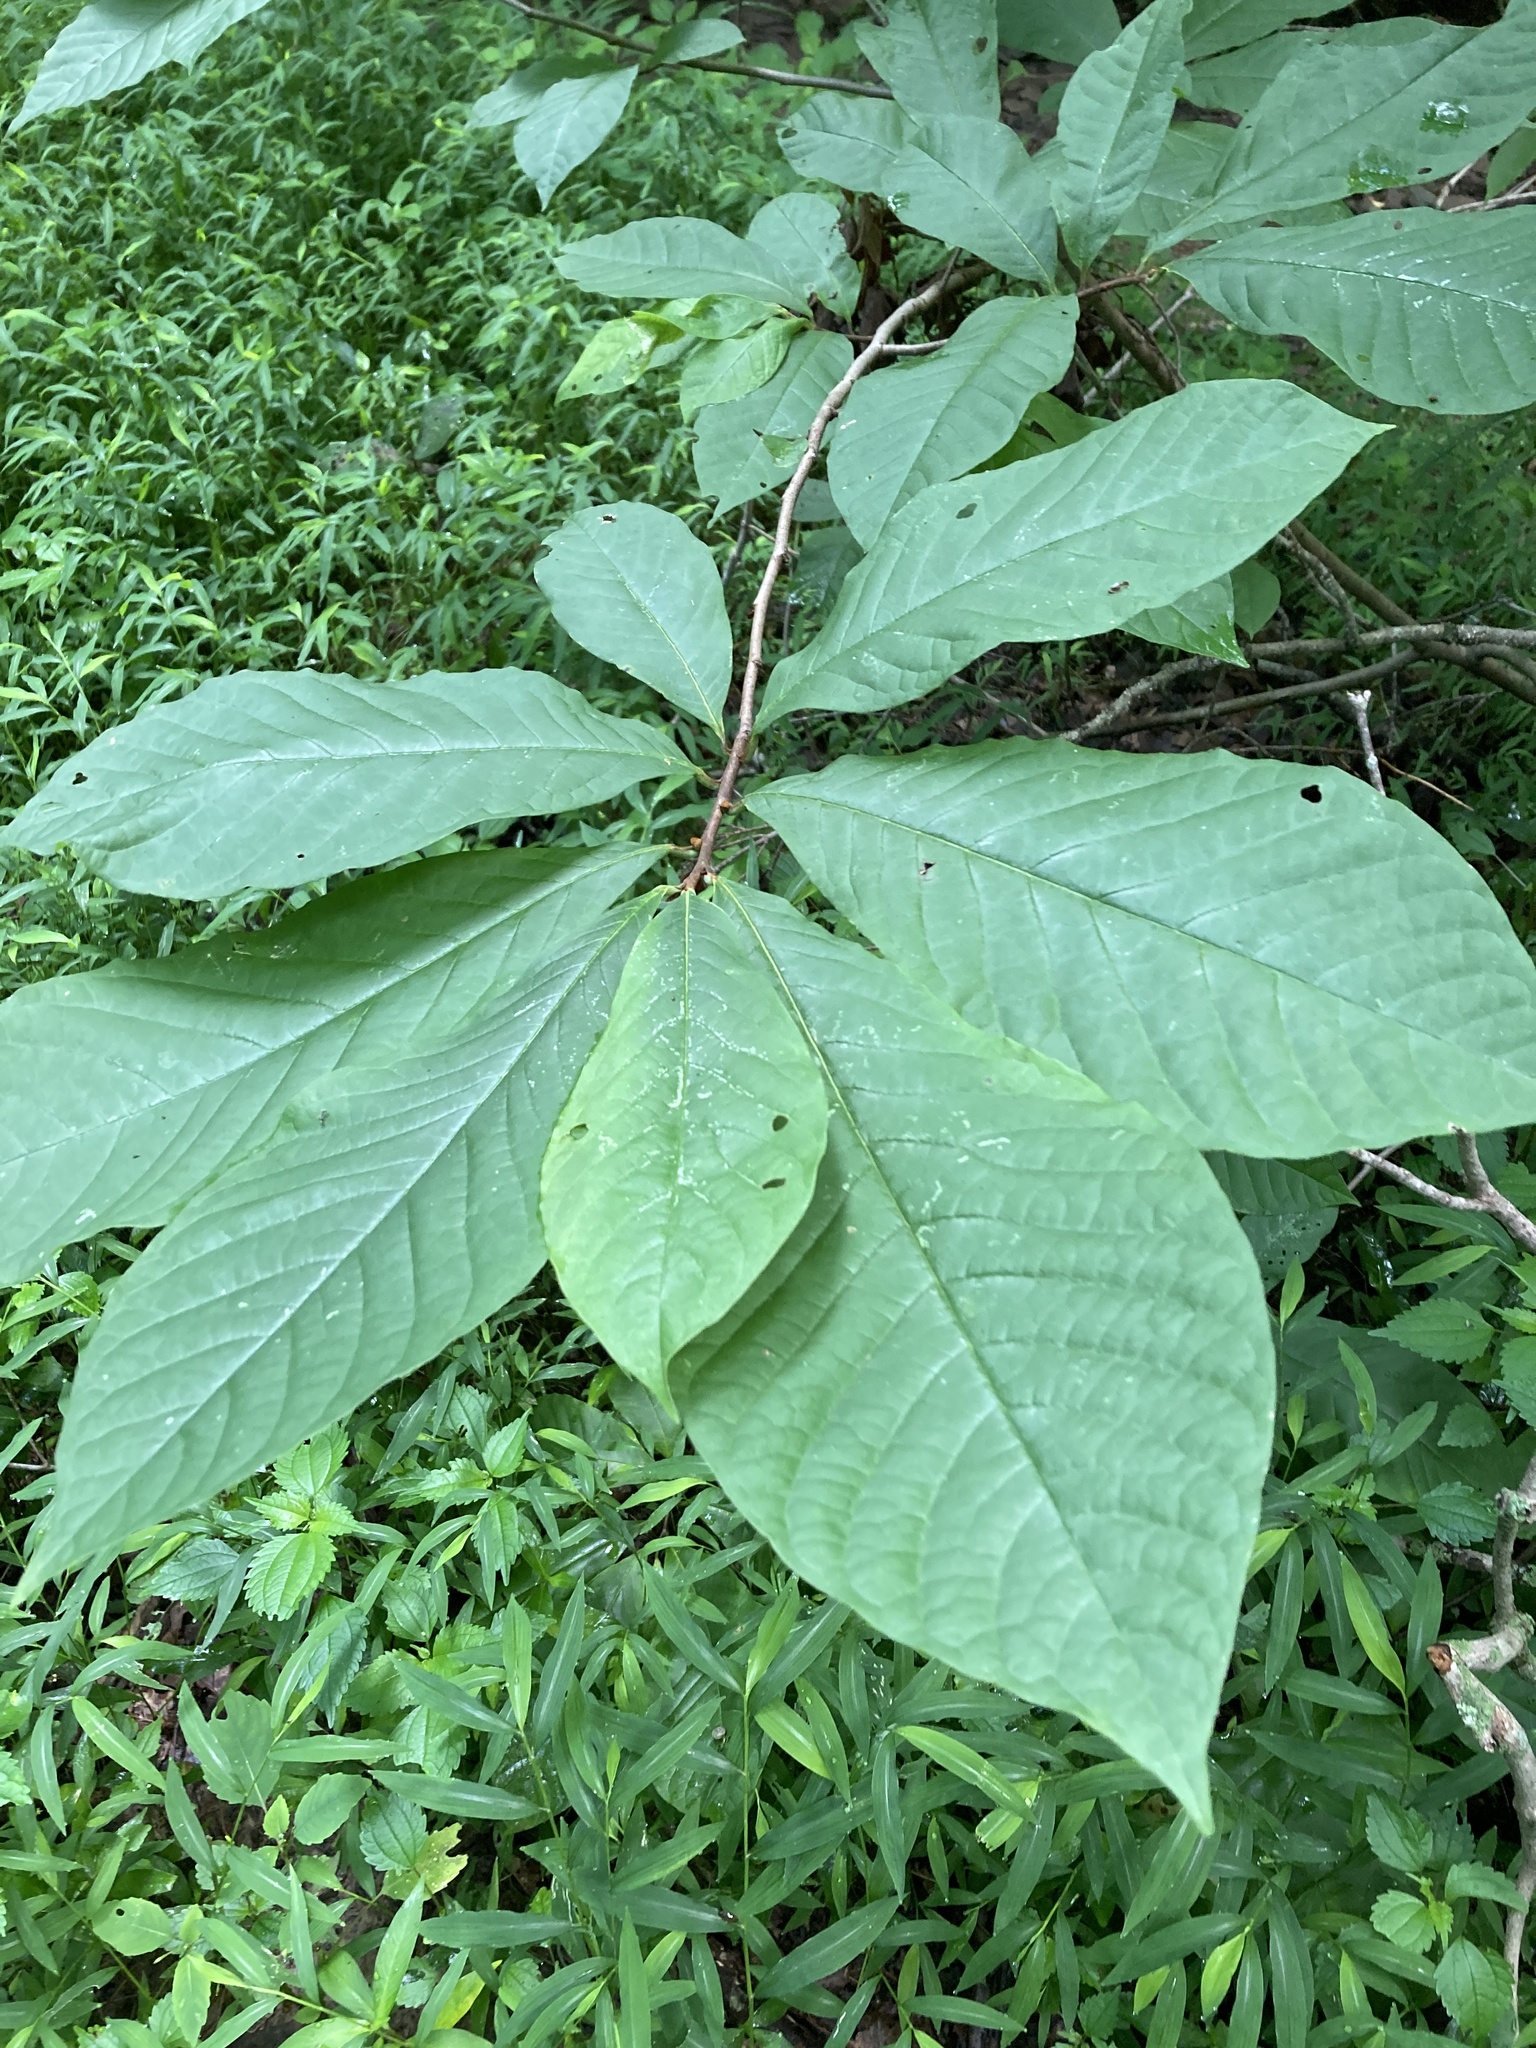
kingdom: Plantae
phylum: Tracheophyta
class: Magnoliopsida
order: Magnoliales
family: Annonaceae
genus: Asimina
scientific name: Asimina triloba
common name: Dog-banana
